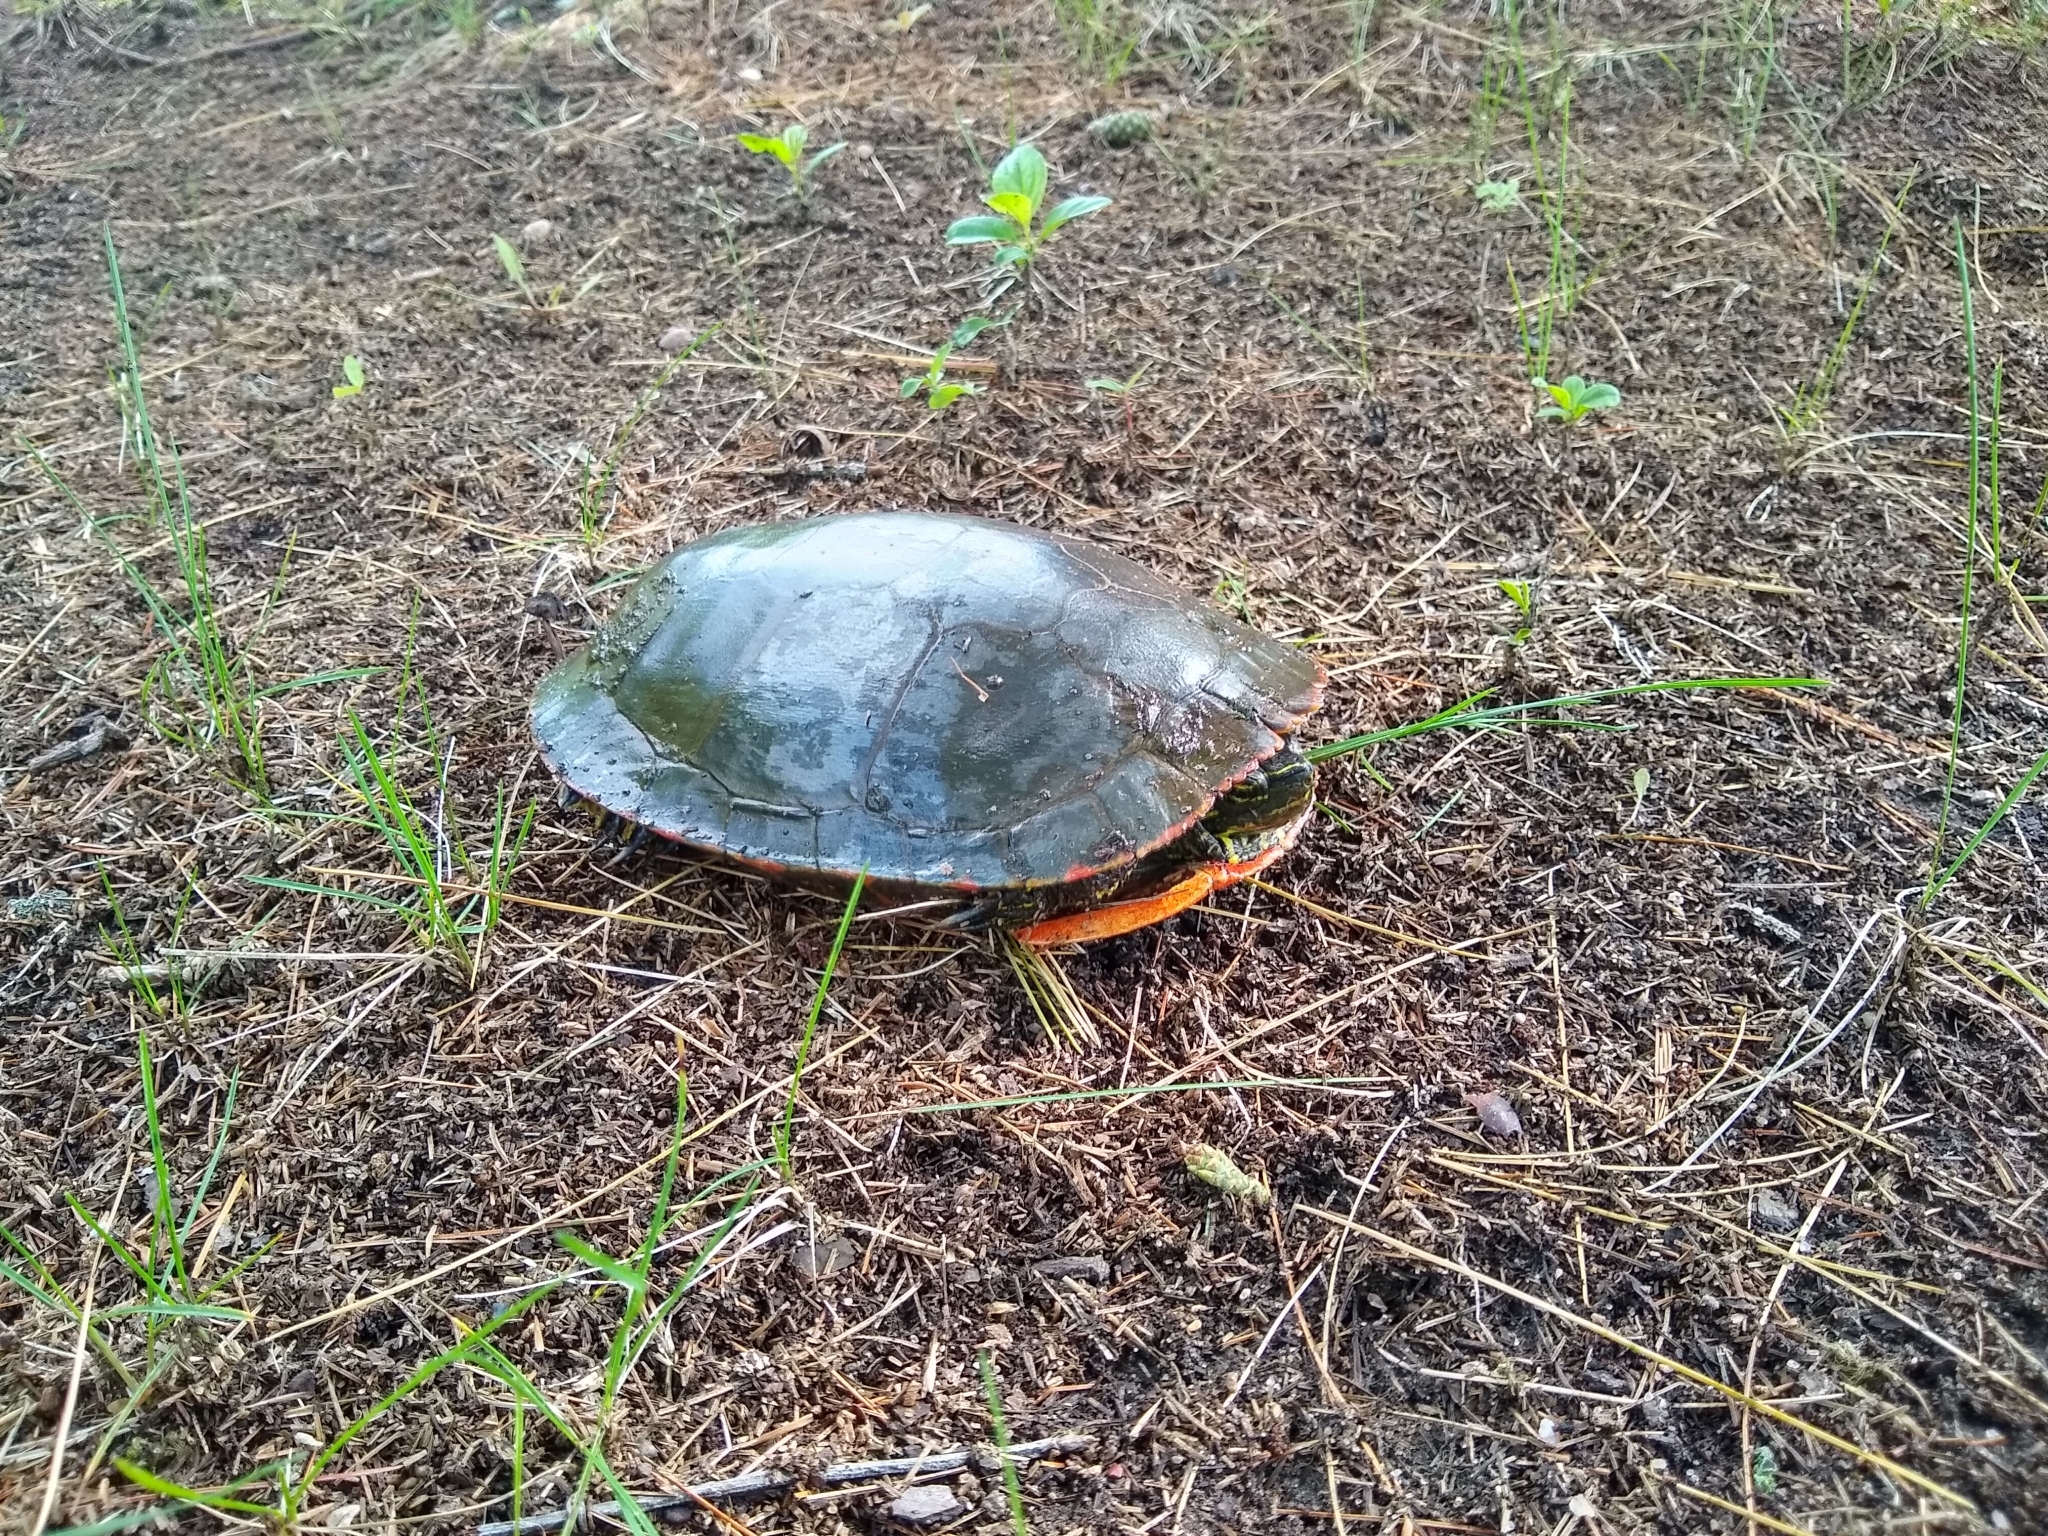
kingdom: Animalia
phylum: Chordata
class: Testudines
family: Emydidae
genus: Chrysemys
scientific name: Chrysemys picta
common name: Painted turtle
